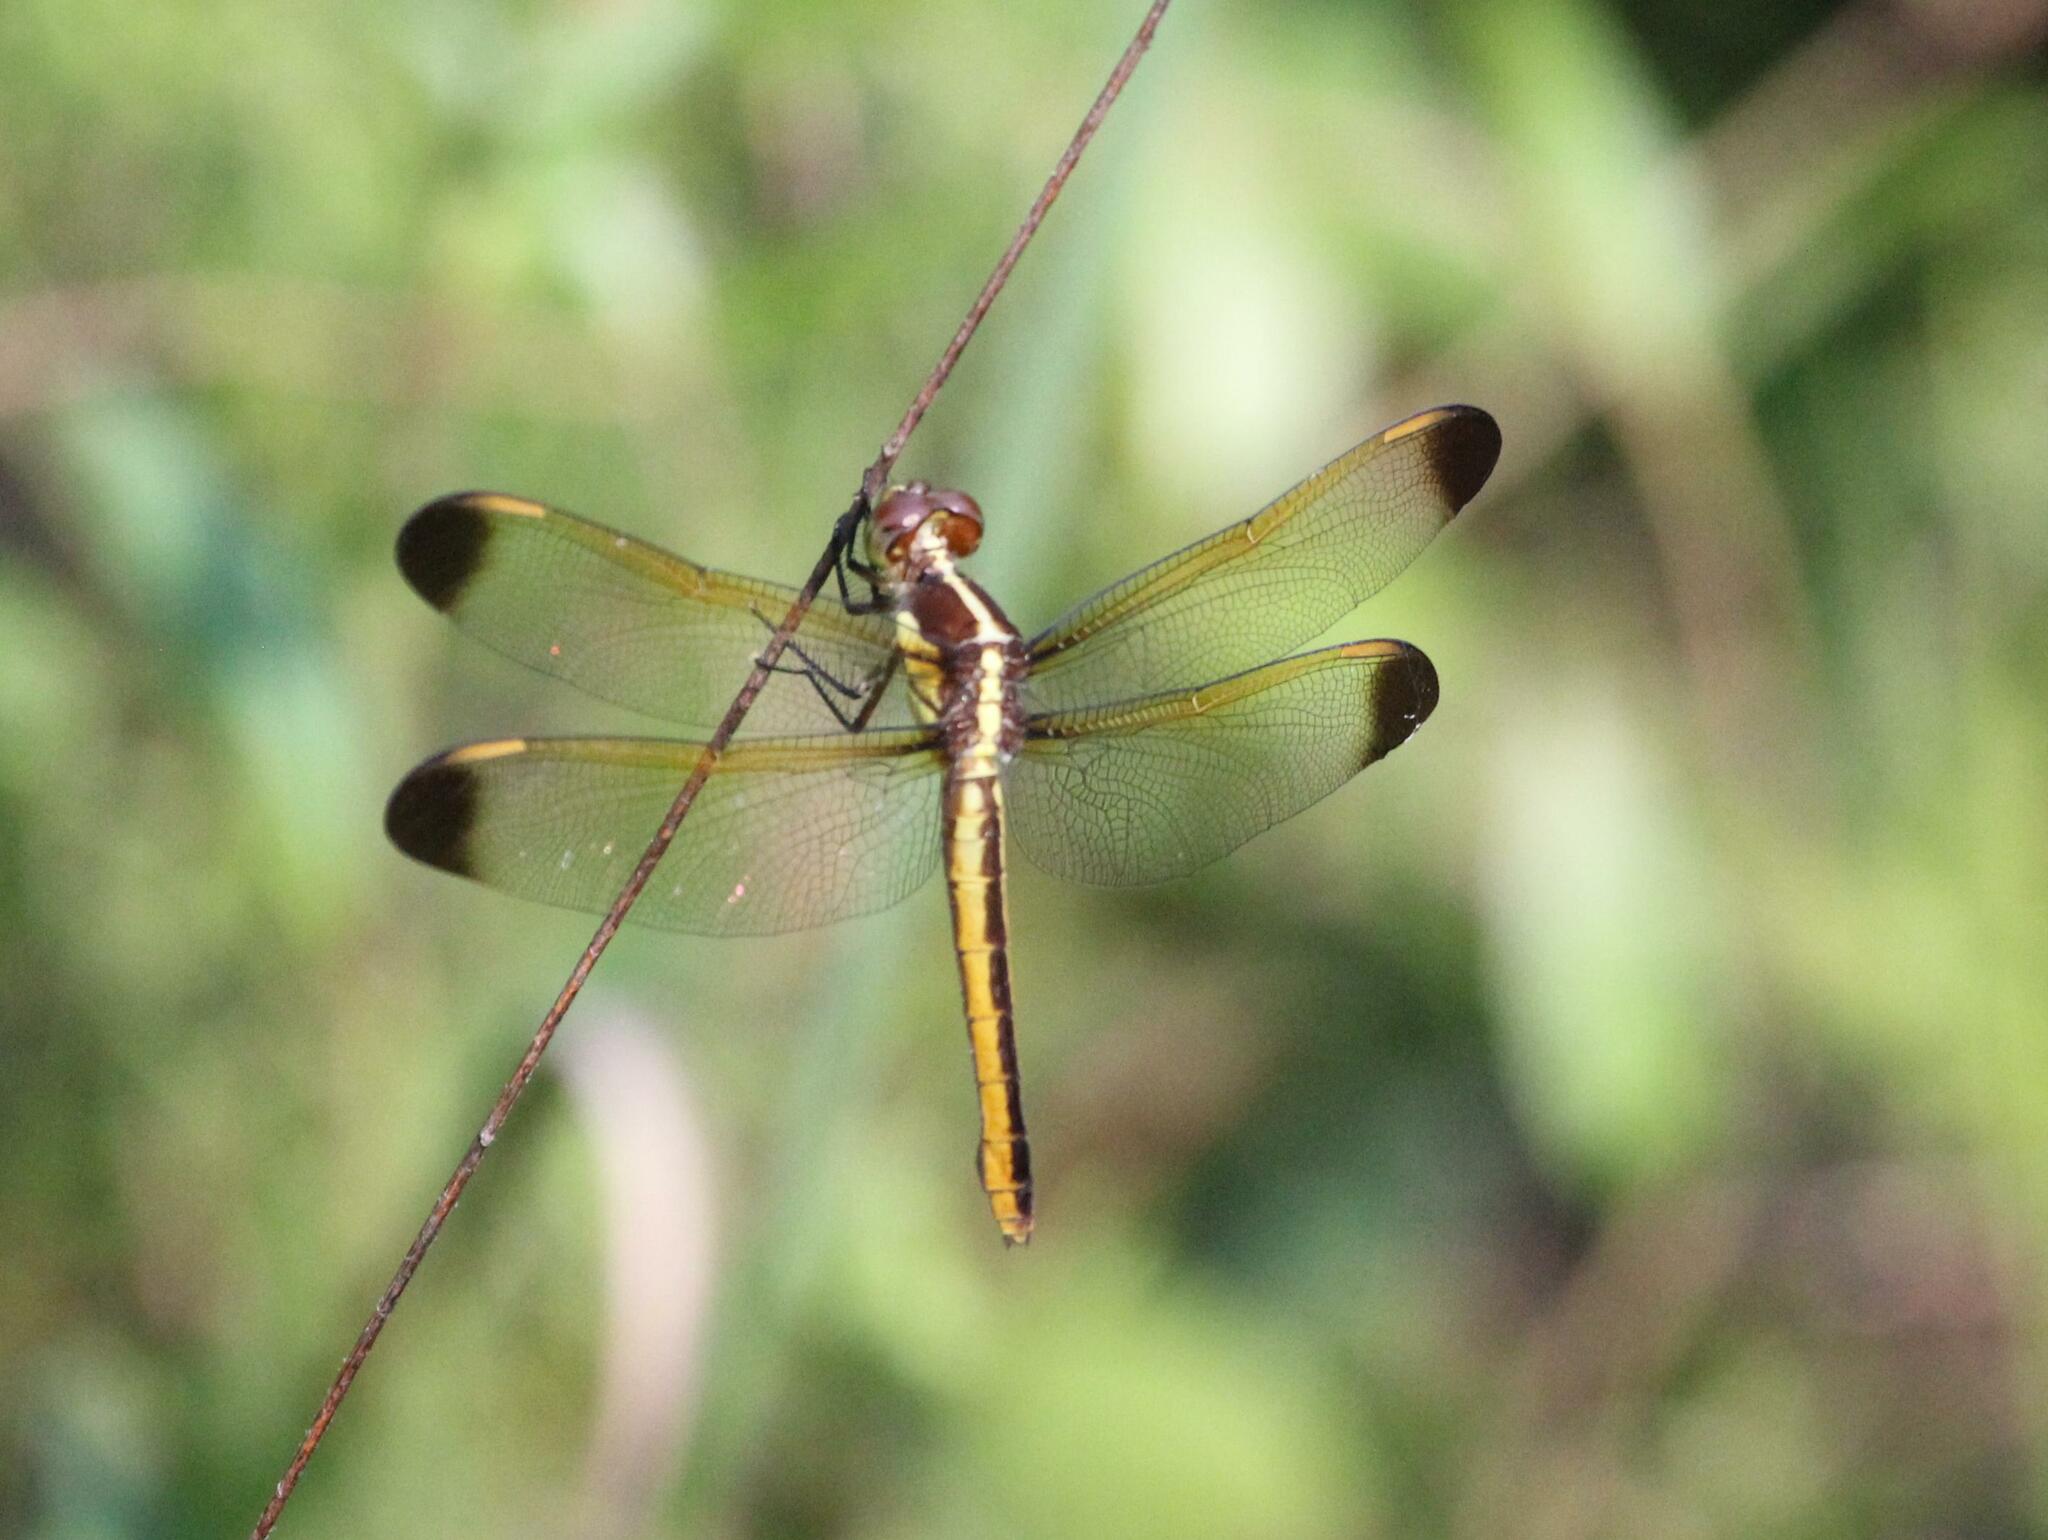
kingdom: Animalia
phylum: Arthropoda
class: Insecta
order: Odonata
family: Libellulidae
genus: Libellula
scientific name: Libellula flavida
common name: Yellow-sided skimmer
